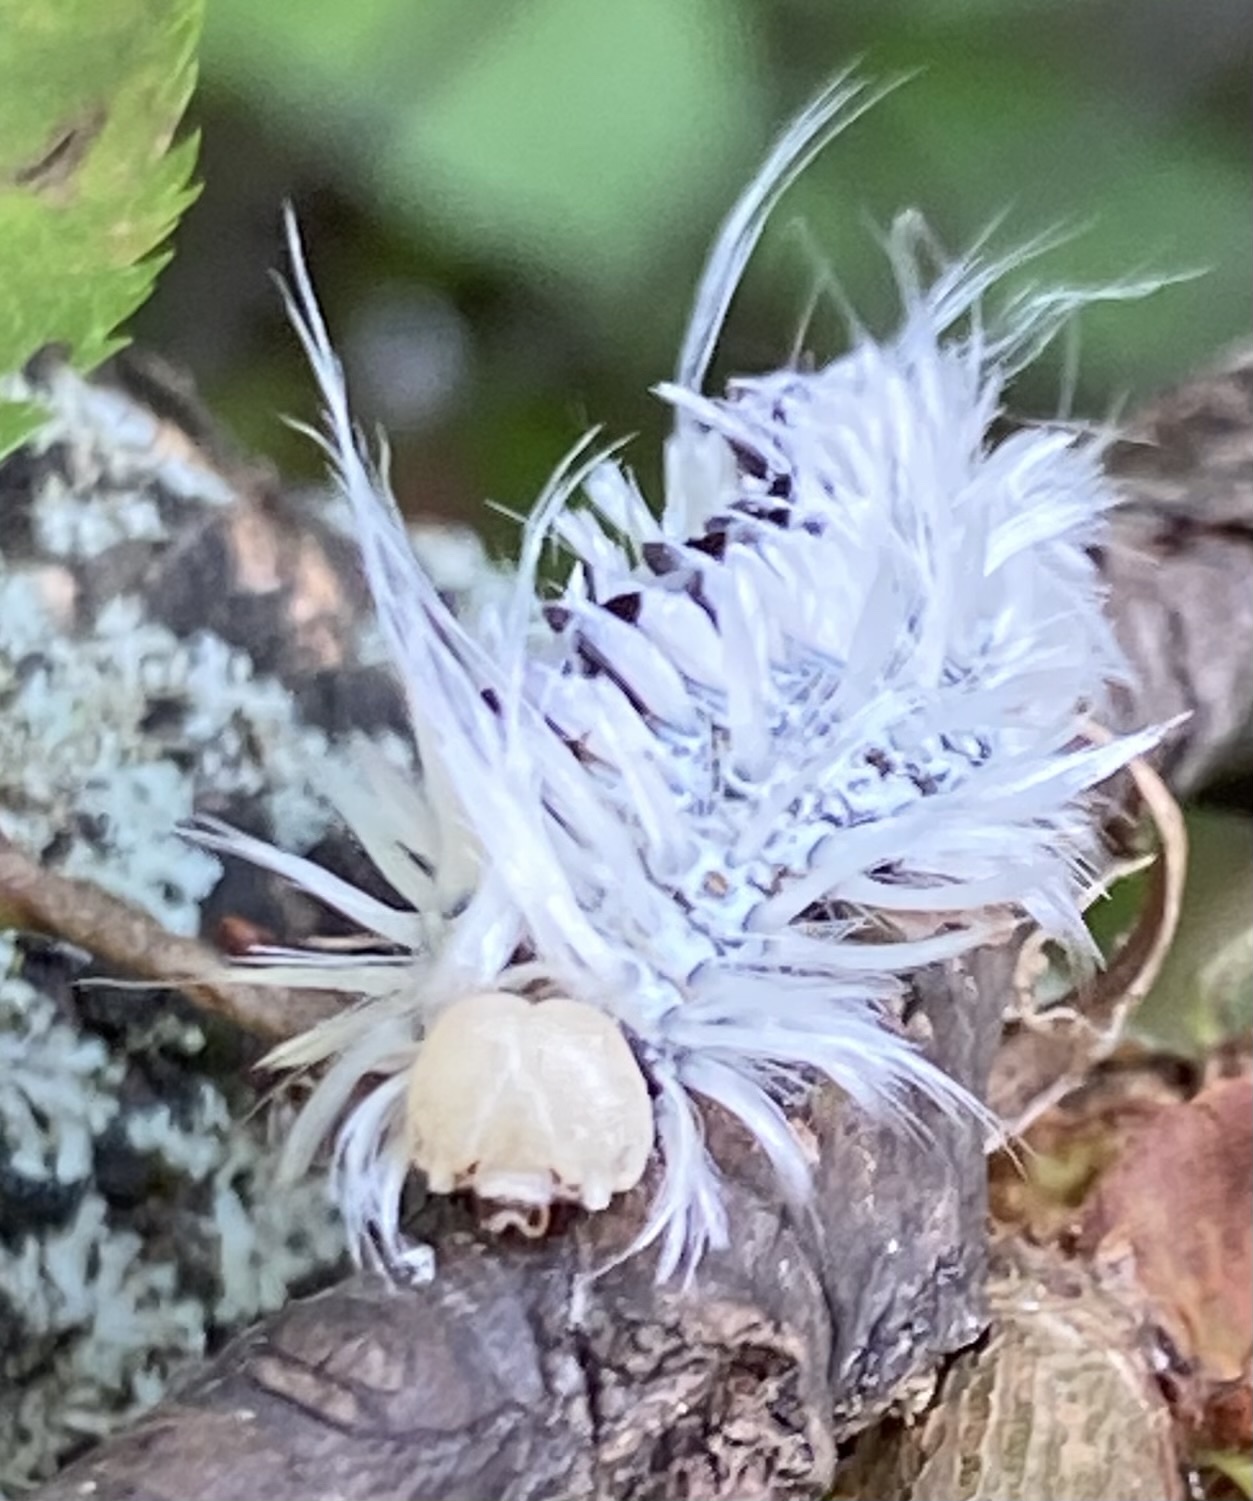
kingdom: Animalia
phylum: Arthropoda
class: Insecta
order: Lepidoptera
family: Erebidae
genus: Lophocampa
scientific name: Lophocampa caryae
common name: Hickory tussock moth
